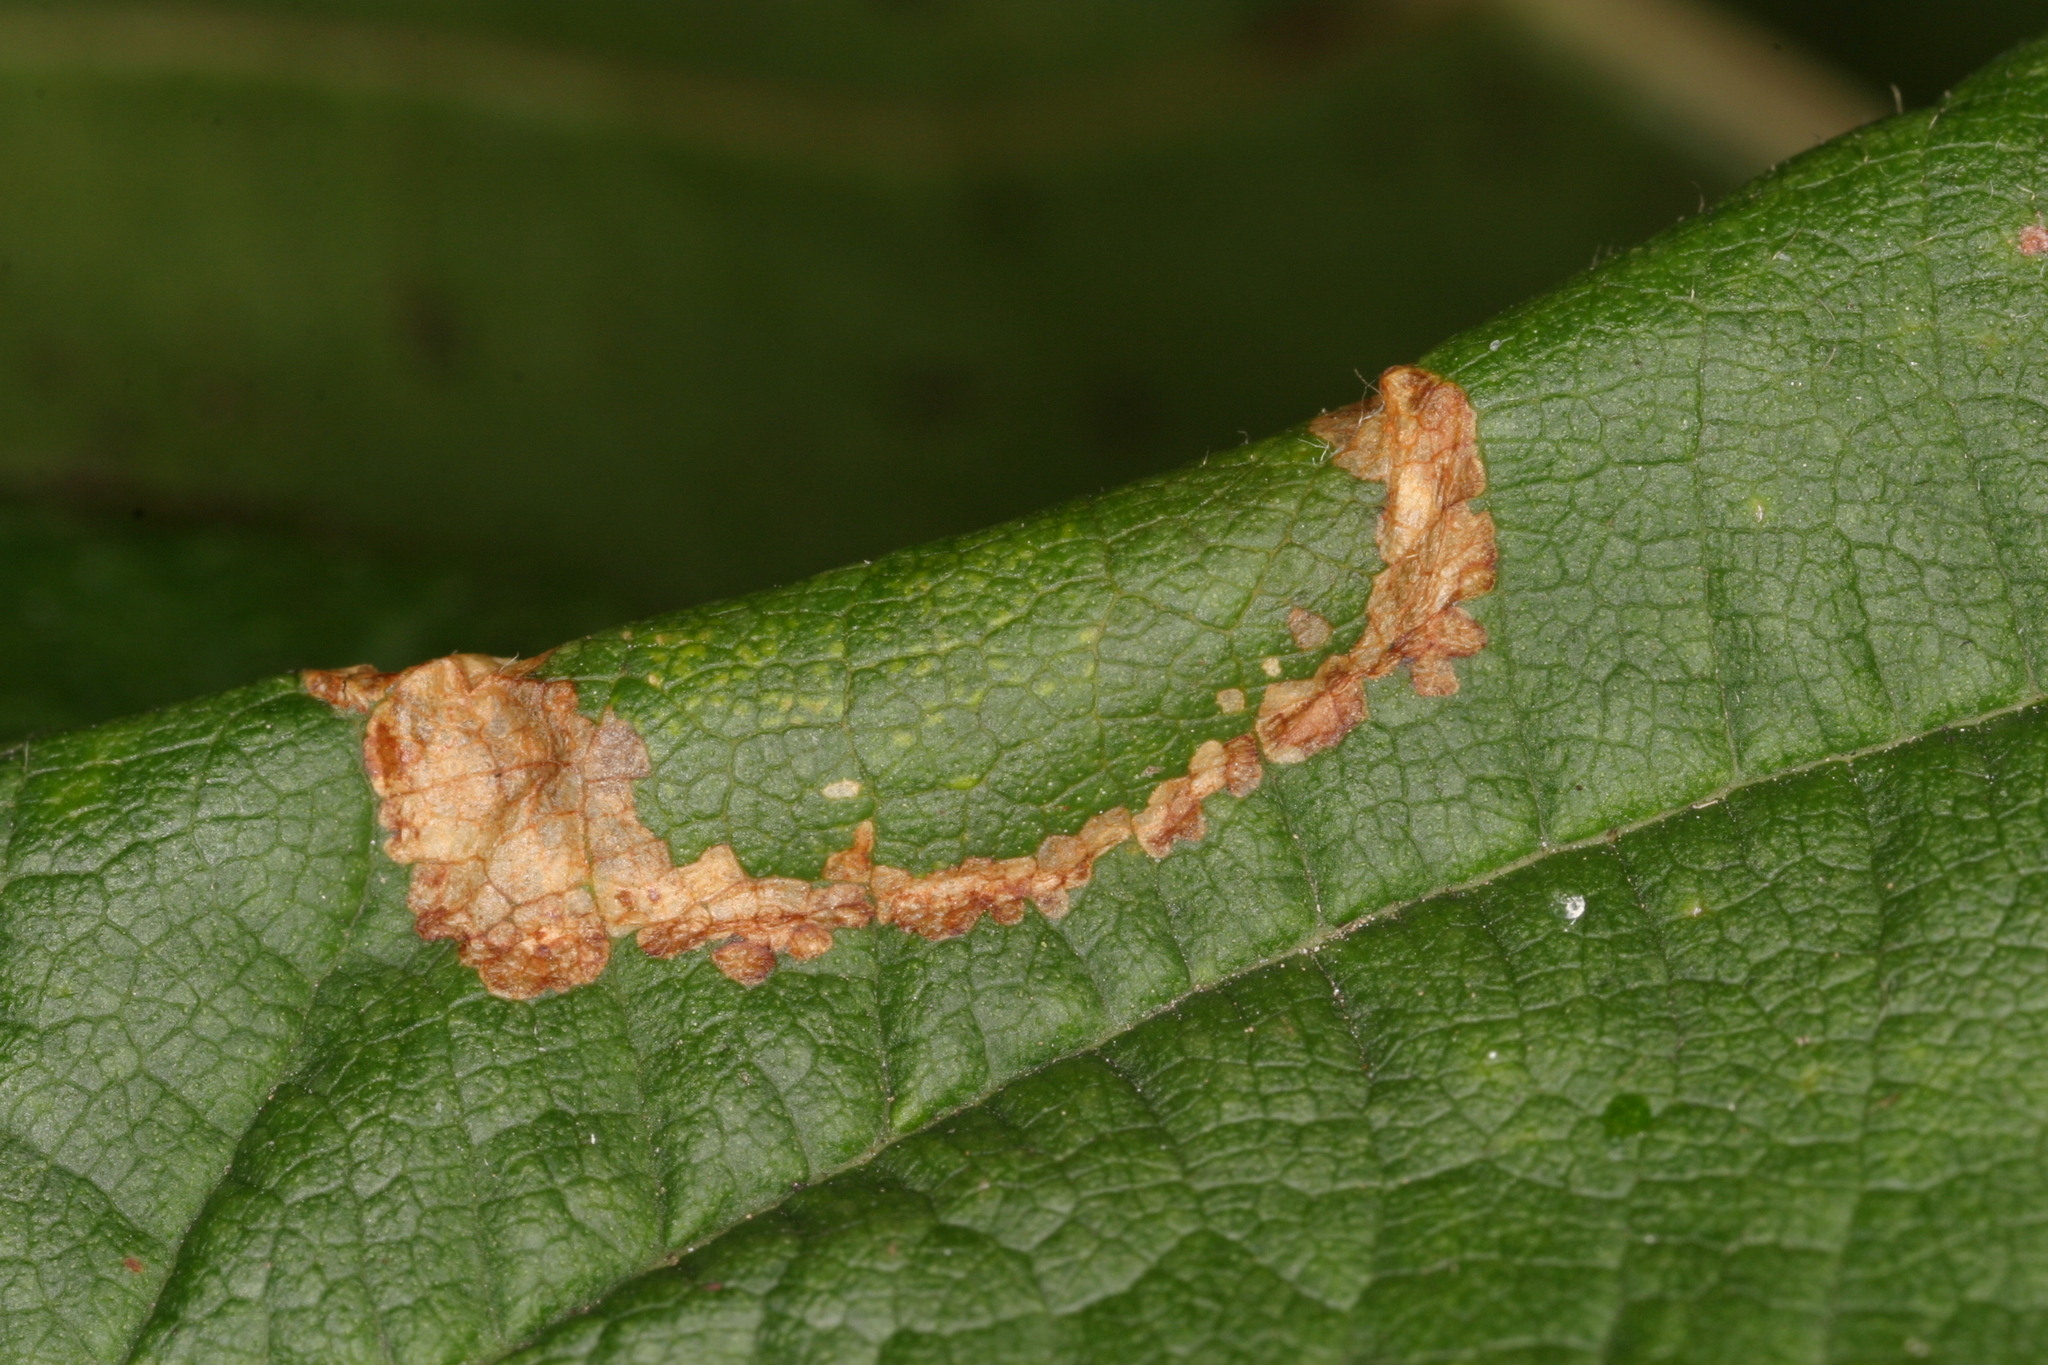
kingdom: Animalia
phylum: Arthropoda
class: Insecta
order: Lepidoptera
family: Gracillariidae
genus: Phyllonorycter
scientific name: Phyllonorycter nicellii
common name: Red hazel midget
